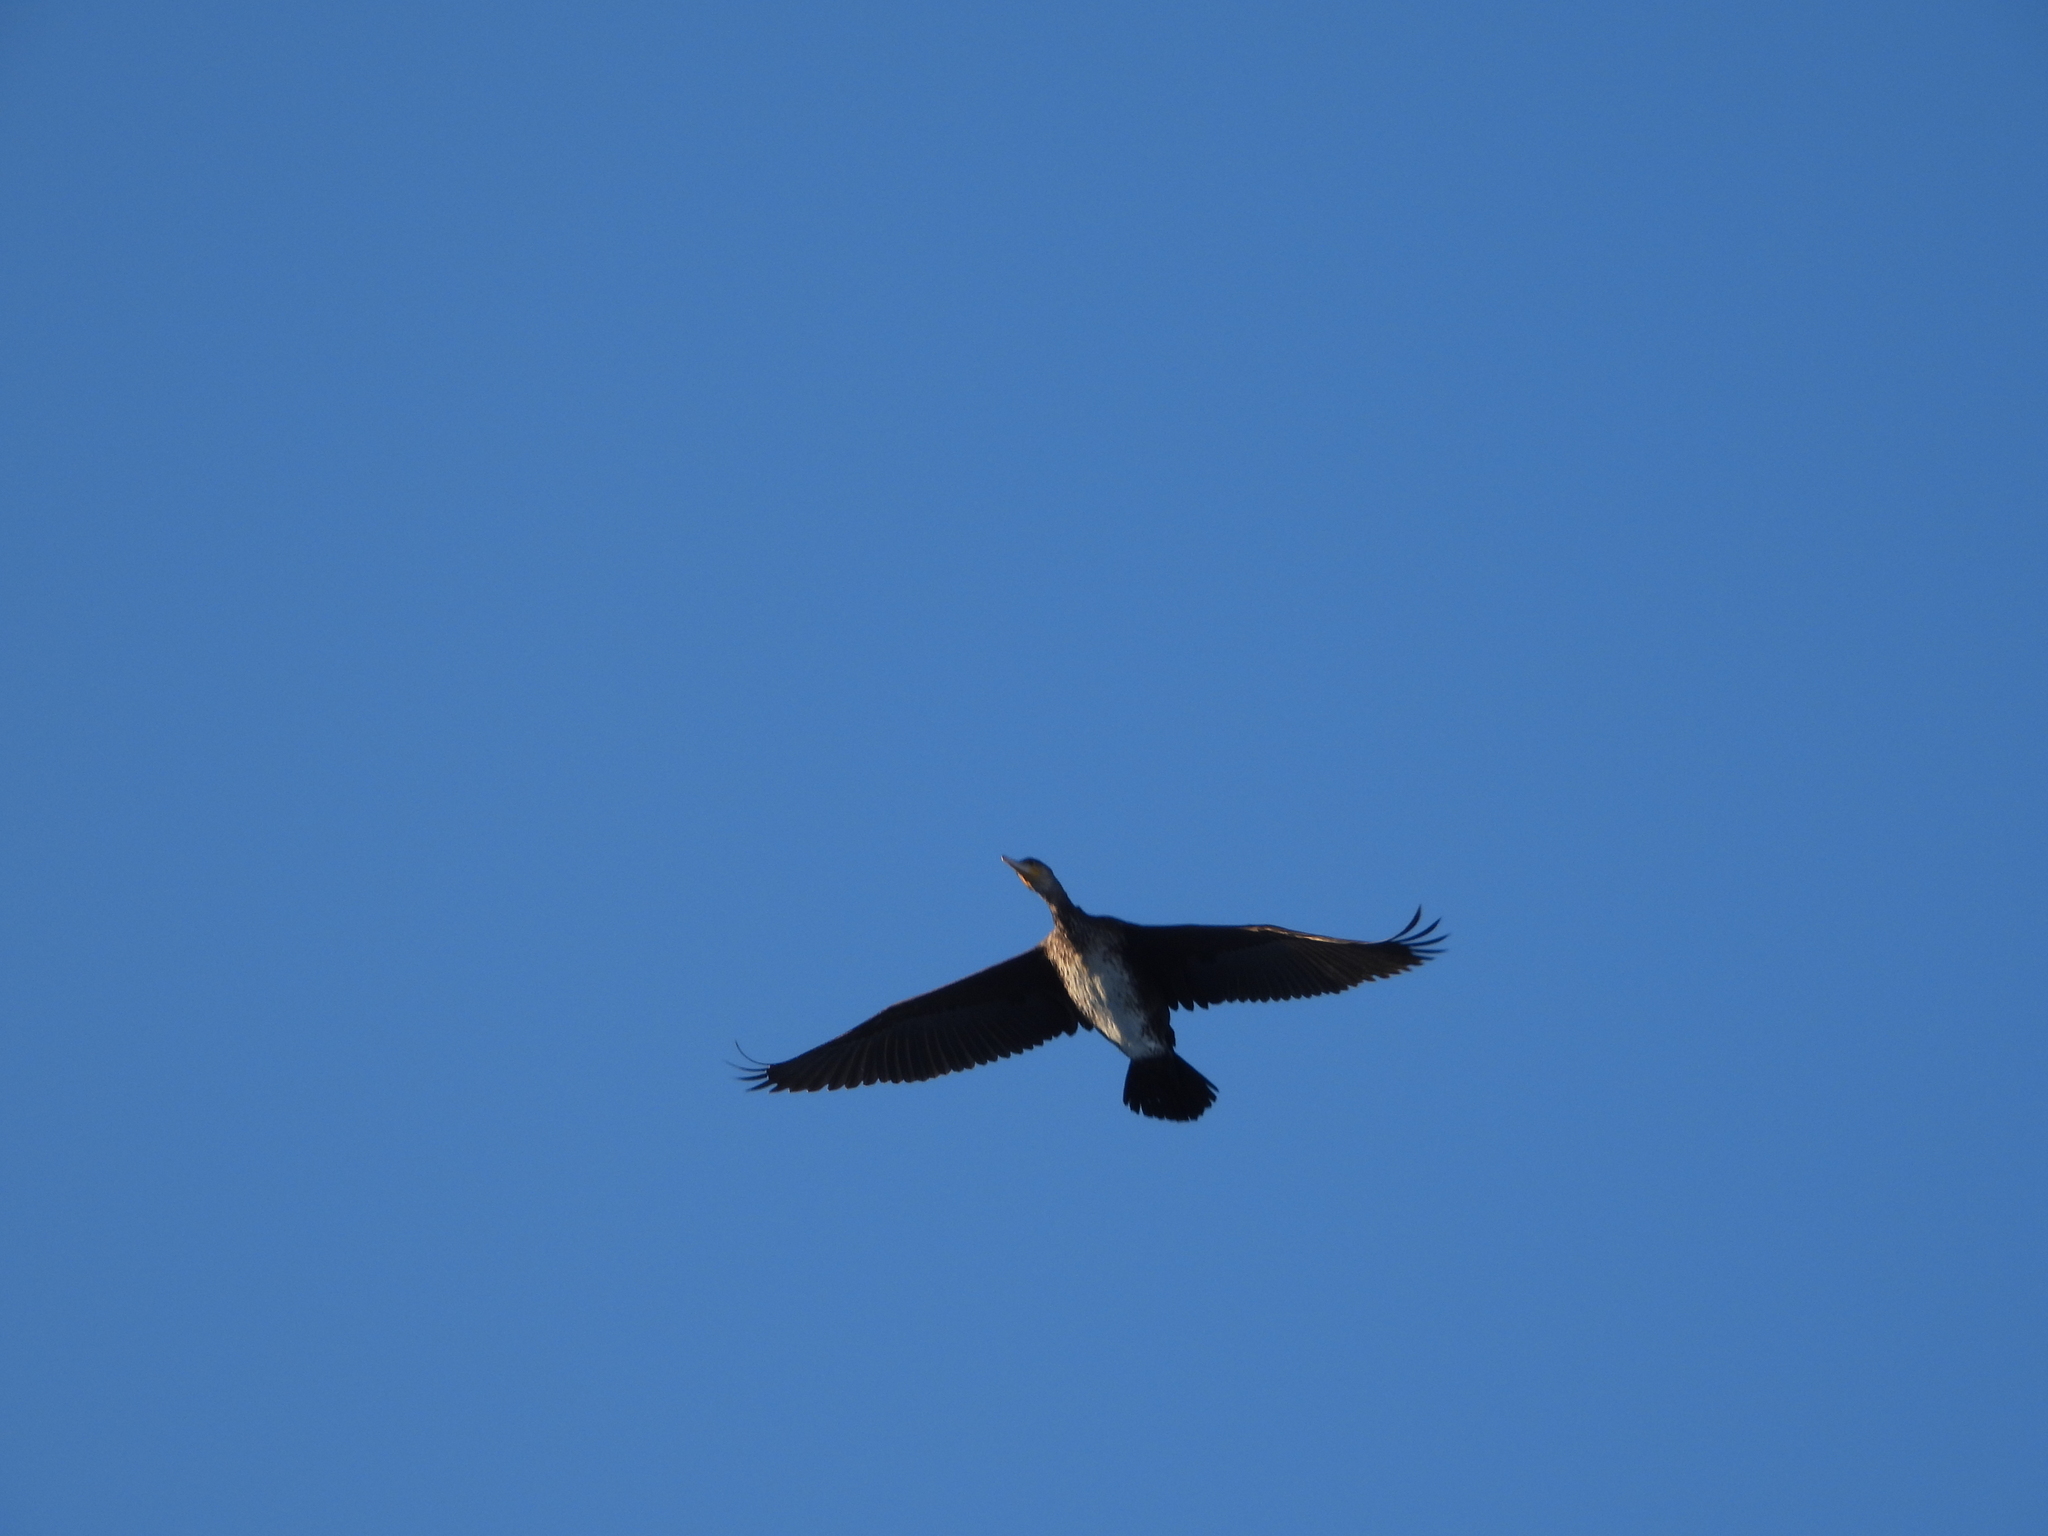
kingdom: Animalia
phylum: Chordata
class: Aves
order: Suliformes
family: Phalacrocoracidae
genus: Phalacrocorax
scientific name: Phalacrocorax carbo
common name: Great cormorant
